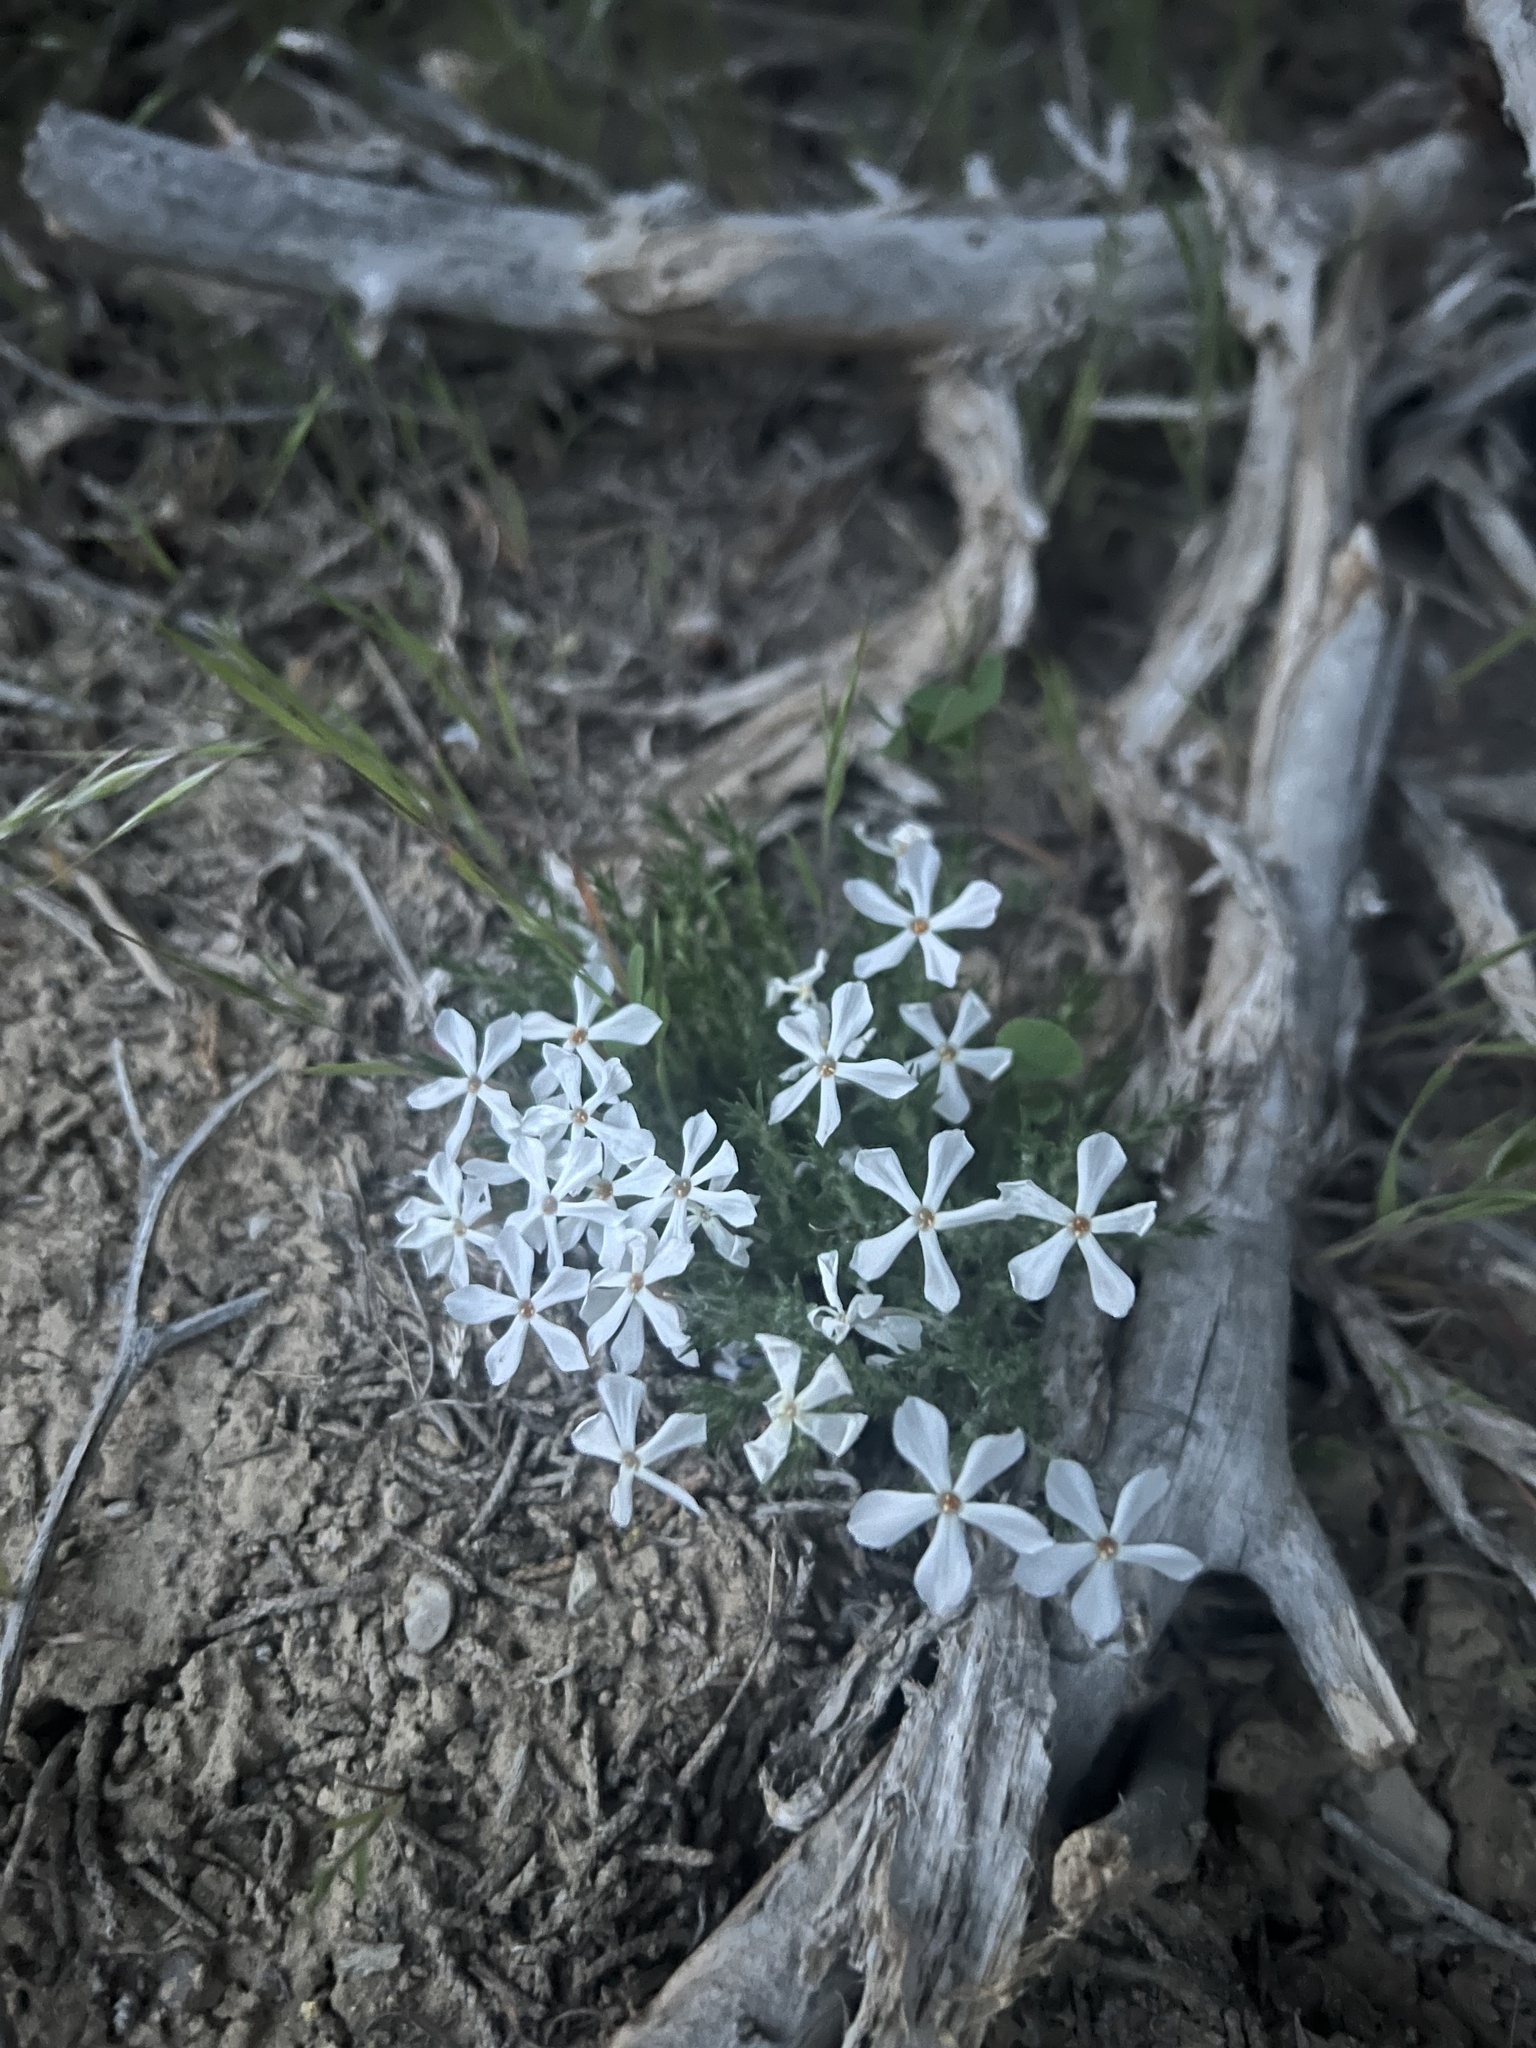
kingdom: Plantae
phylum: Tracheophyta
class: Magnoliopsida
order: Ericales
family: Polemoniaceae
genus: Phlox
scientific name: Phlox hoodii
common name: Moss phlox
